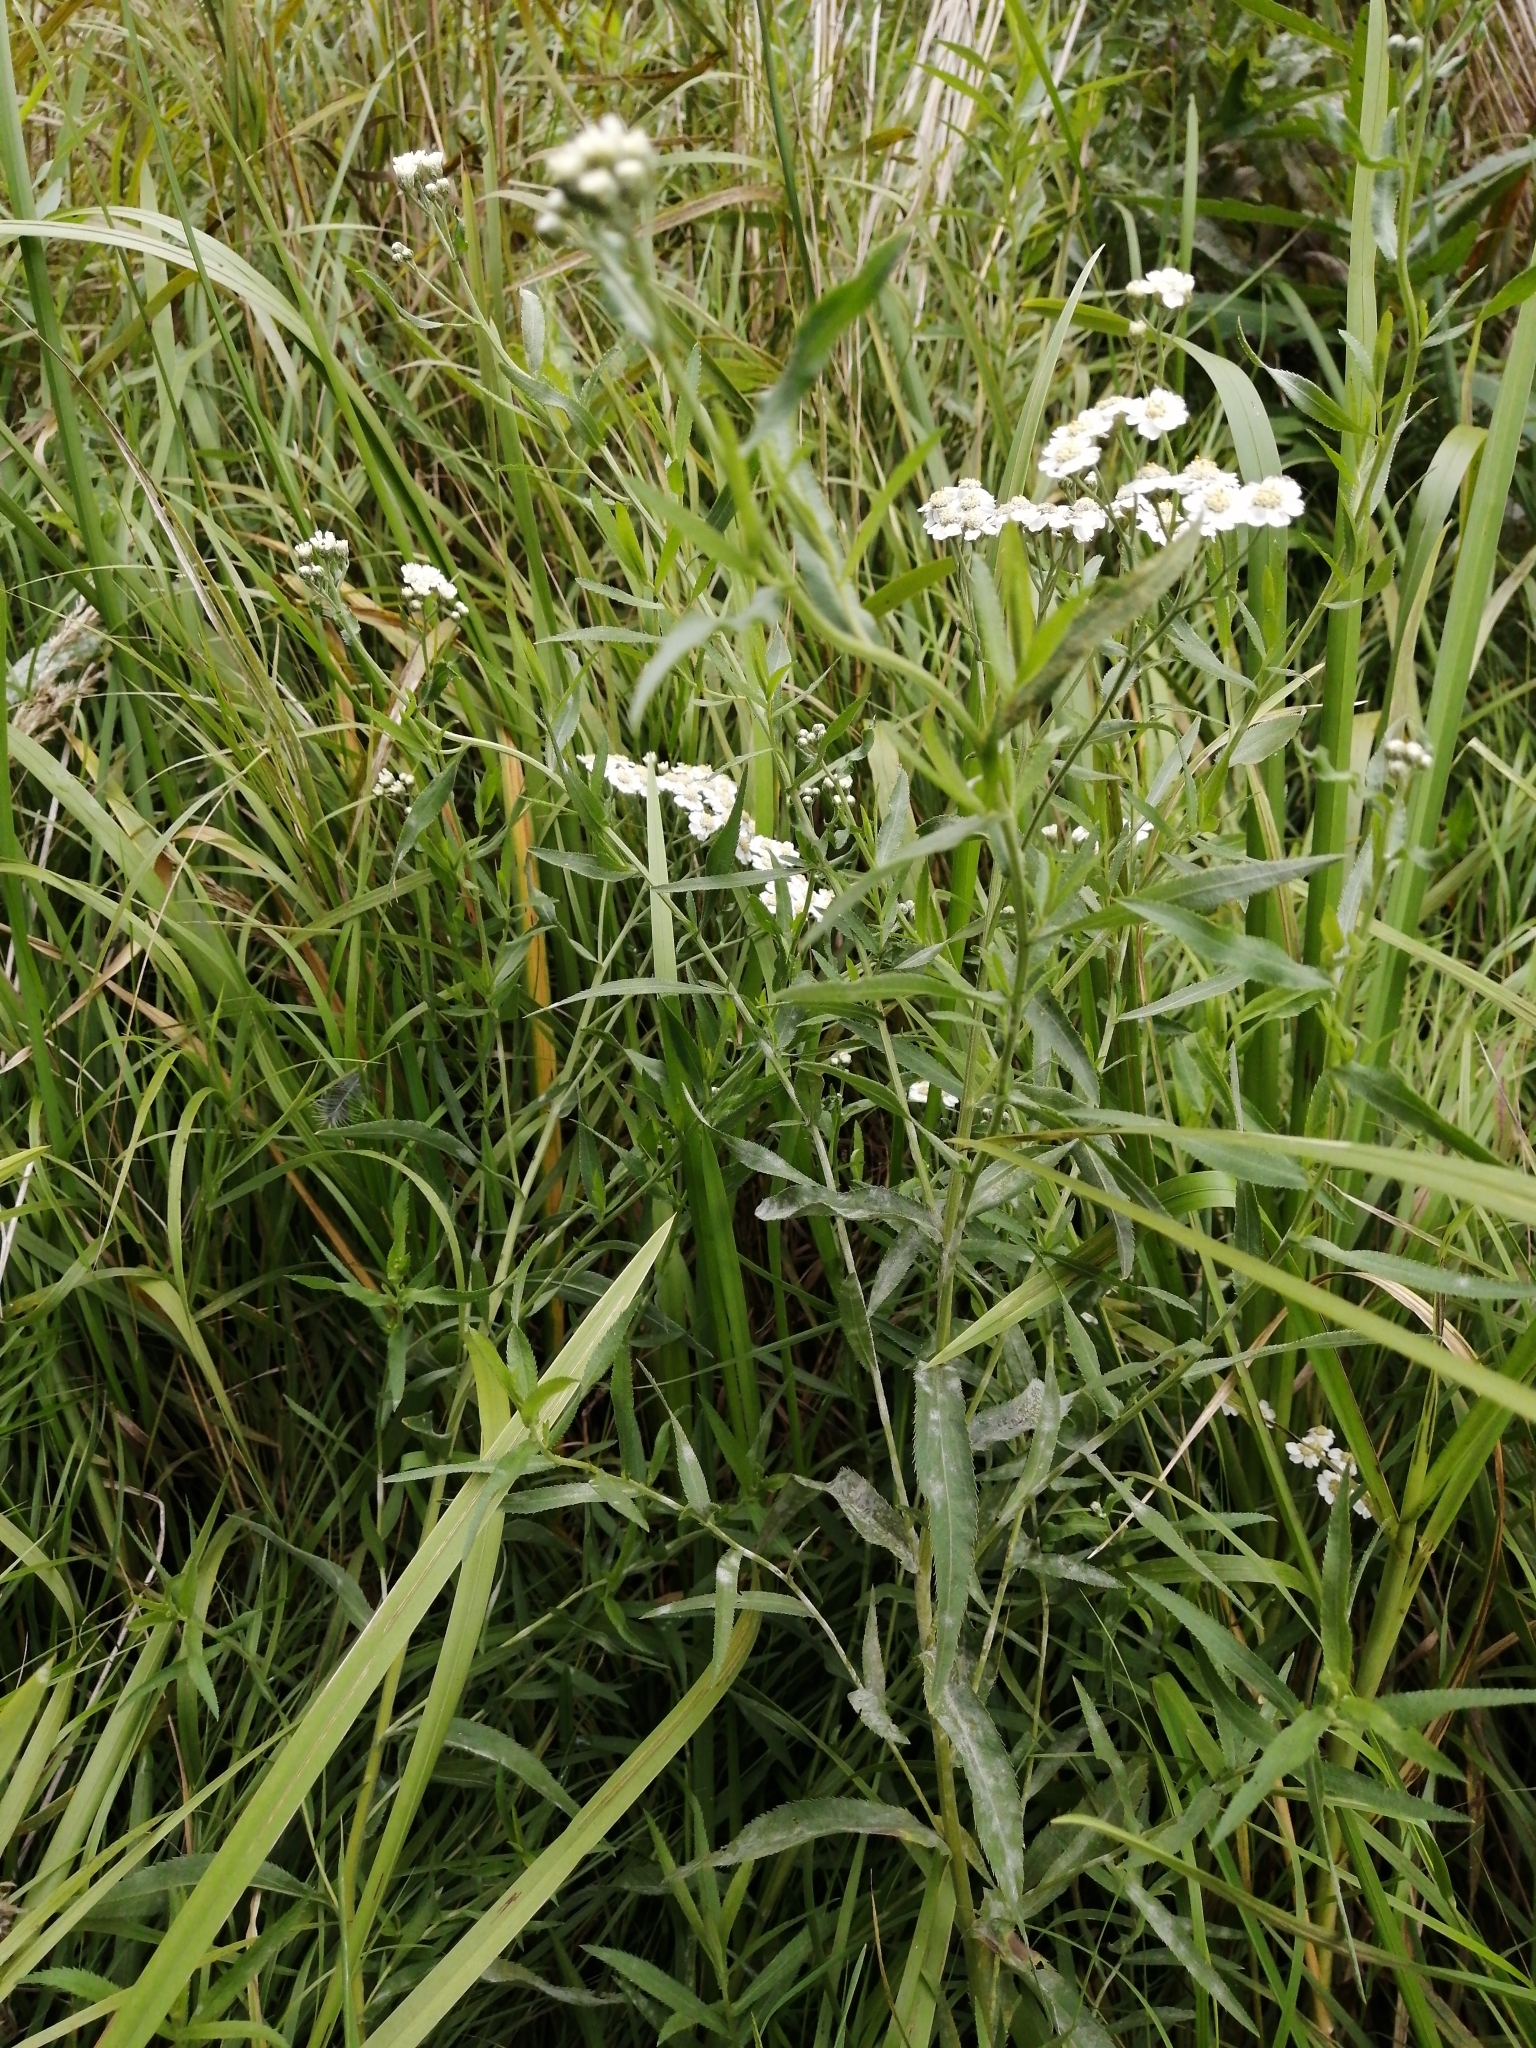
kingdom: Plantae
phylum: Tracheophyta
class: Magnoliopsida
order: Asterales
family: Asteraceae
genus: Achillea
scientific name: Achillea salicifolia
